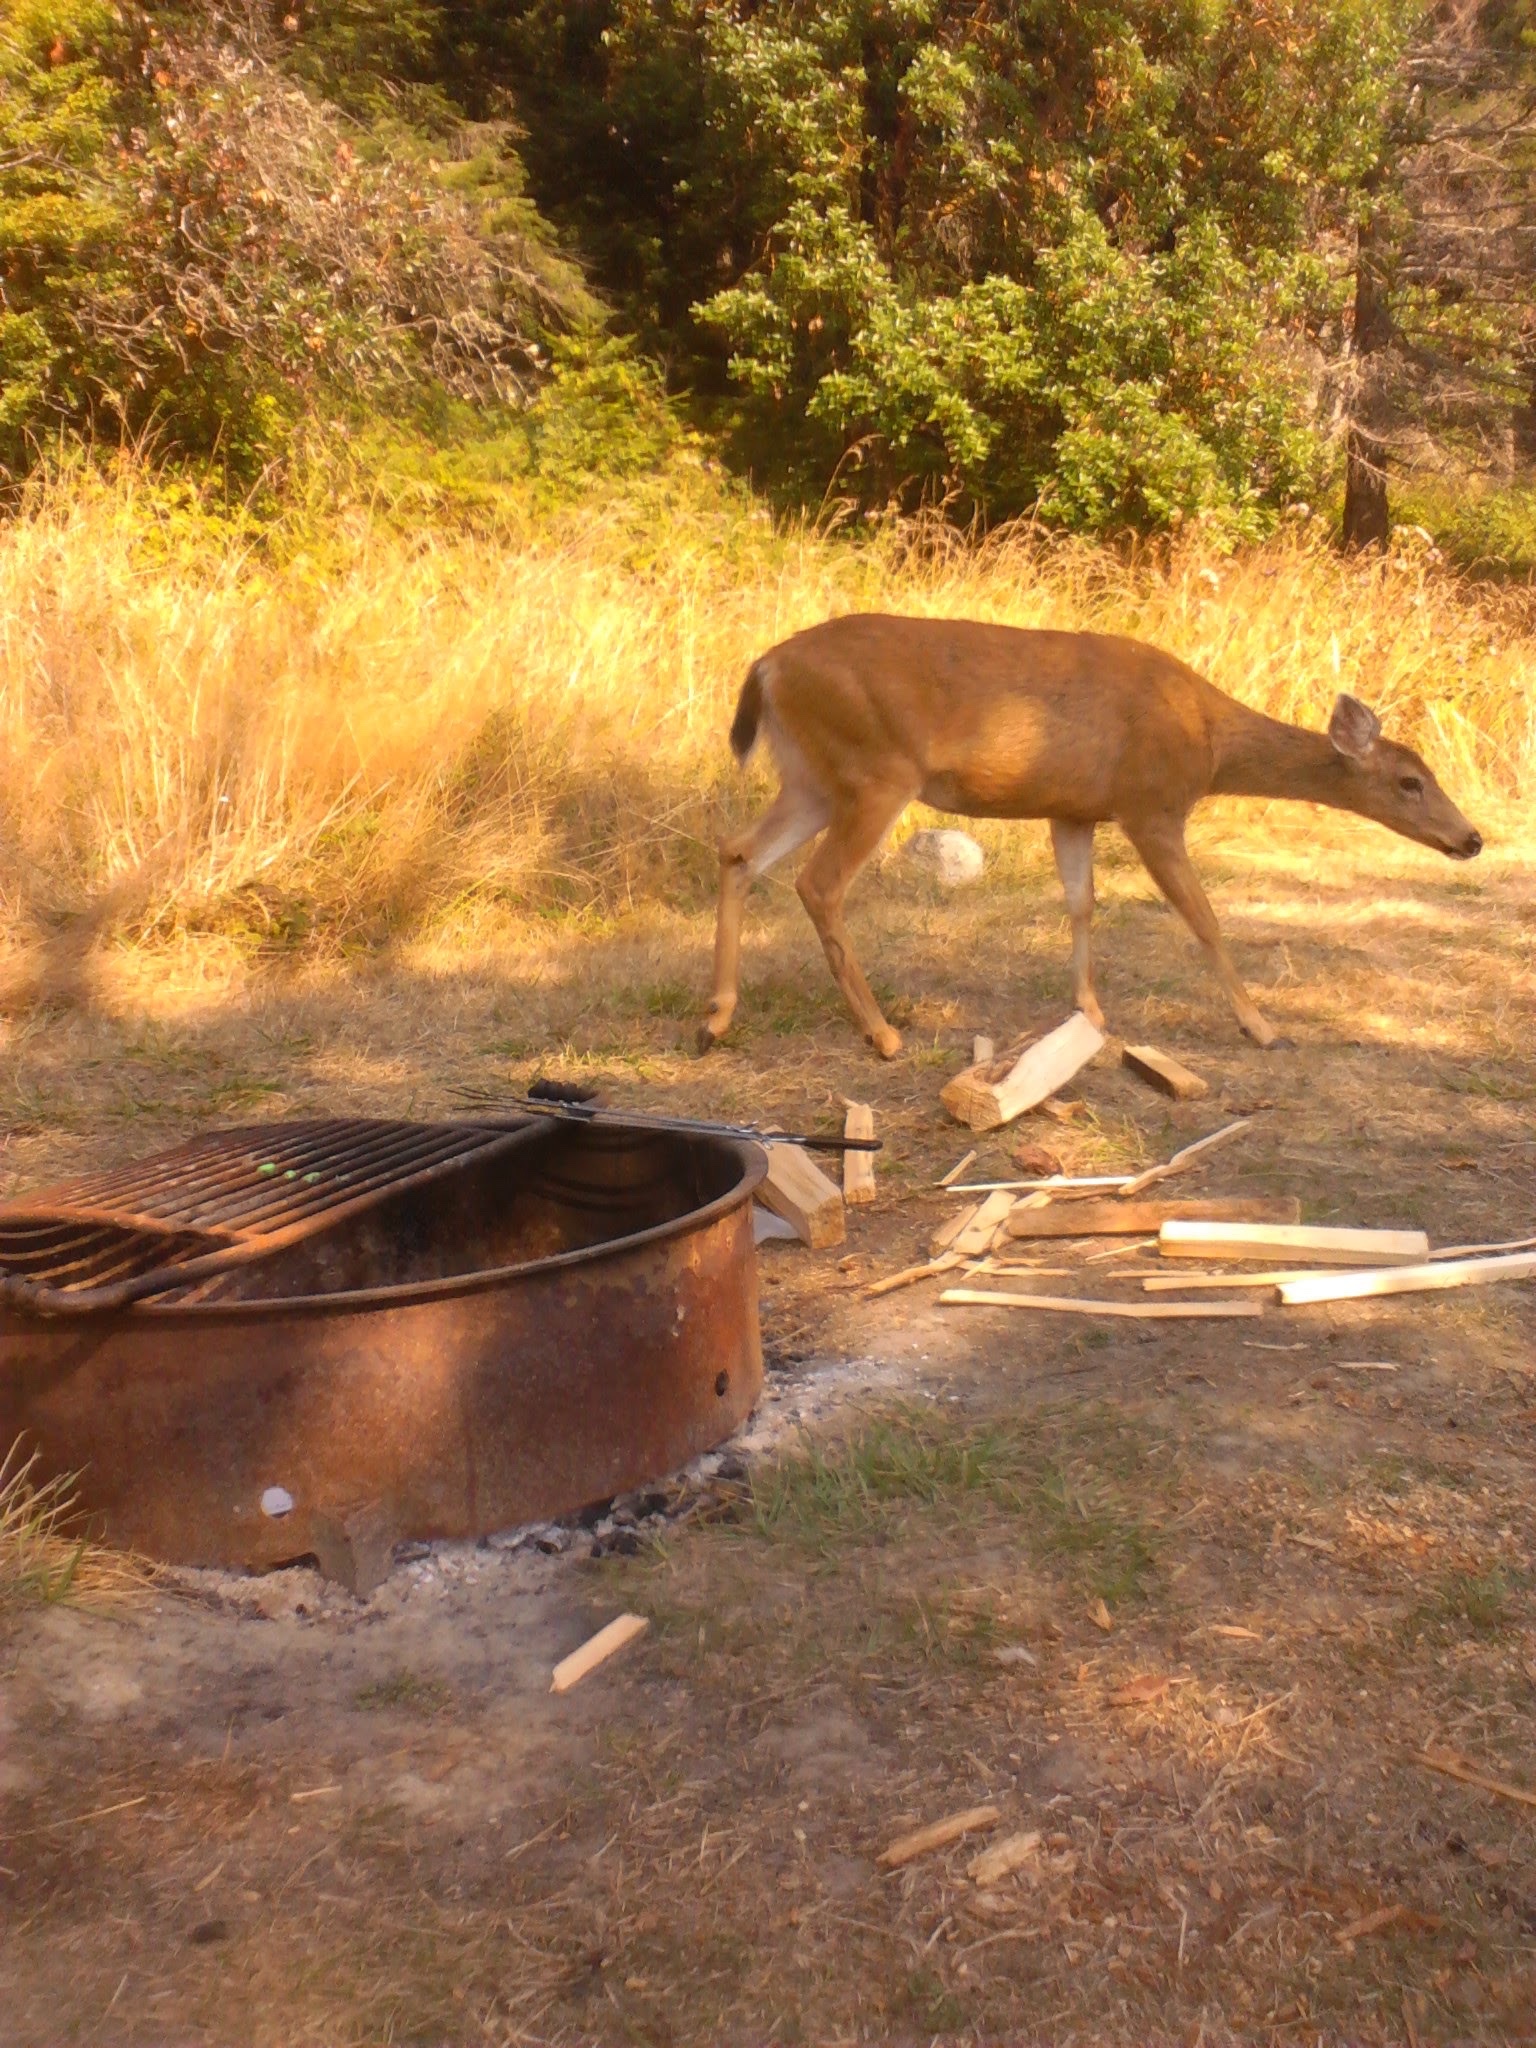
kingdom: Animalia
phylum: Chordata
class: Mammalia
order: Artiodactyla
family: Cervidae
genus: Odocoileus
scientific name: Odocoileus hemionus
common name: Mule deer
